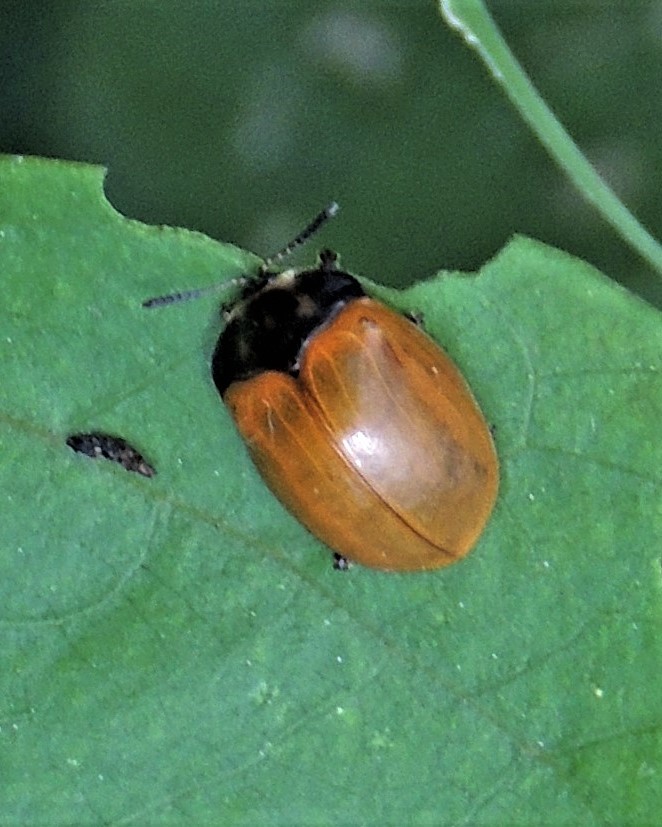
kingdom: Animalia
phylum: Arthropoda
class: Insecta
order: Coleoptera
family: Chrysomelidae
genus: Chelymorpha
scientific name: Chelymorpha cribraria
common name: Tortoise beetle
